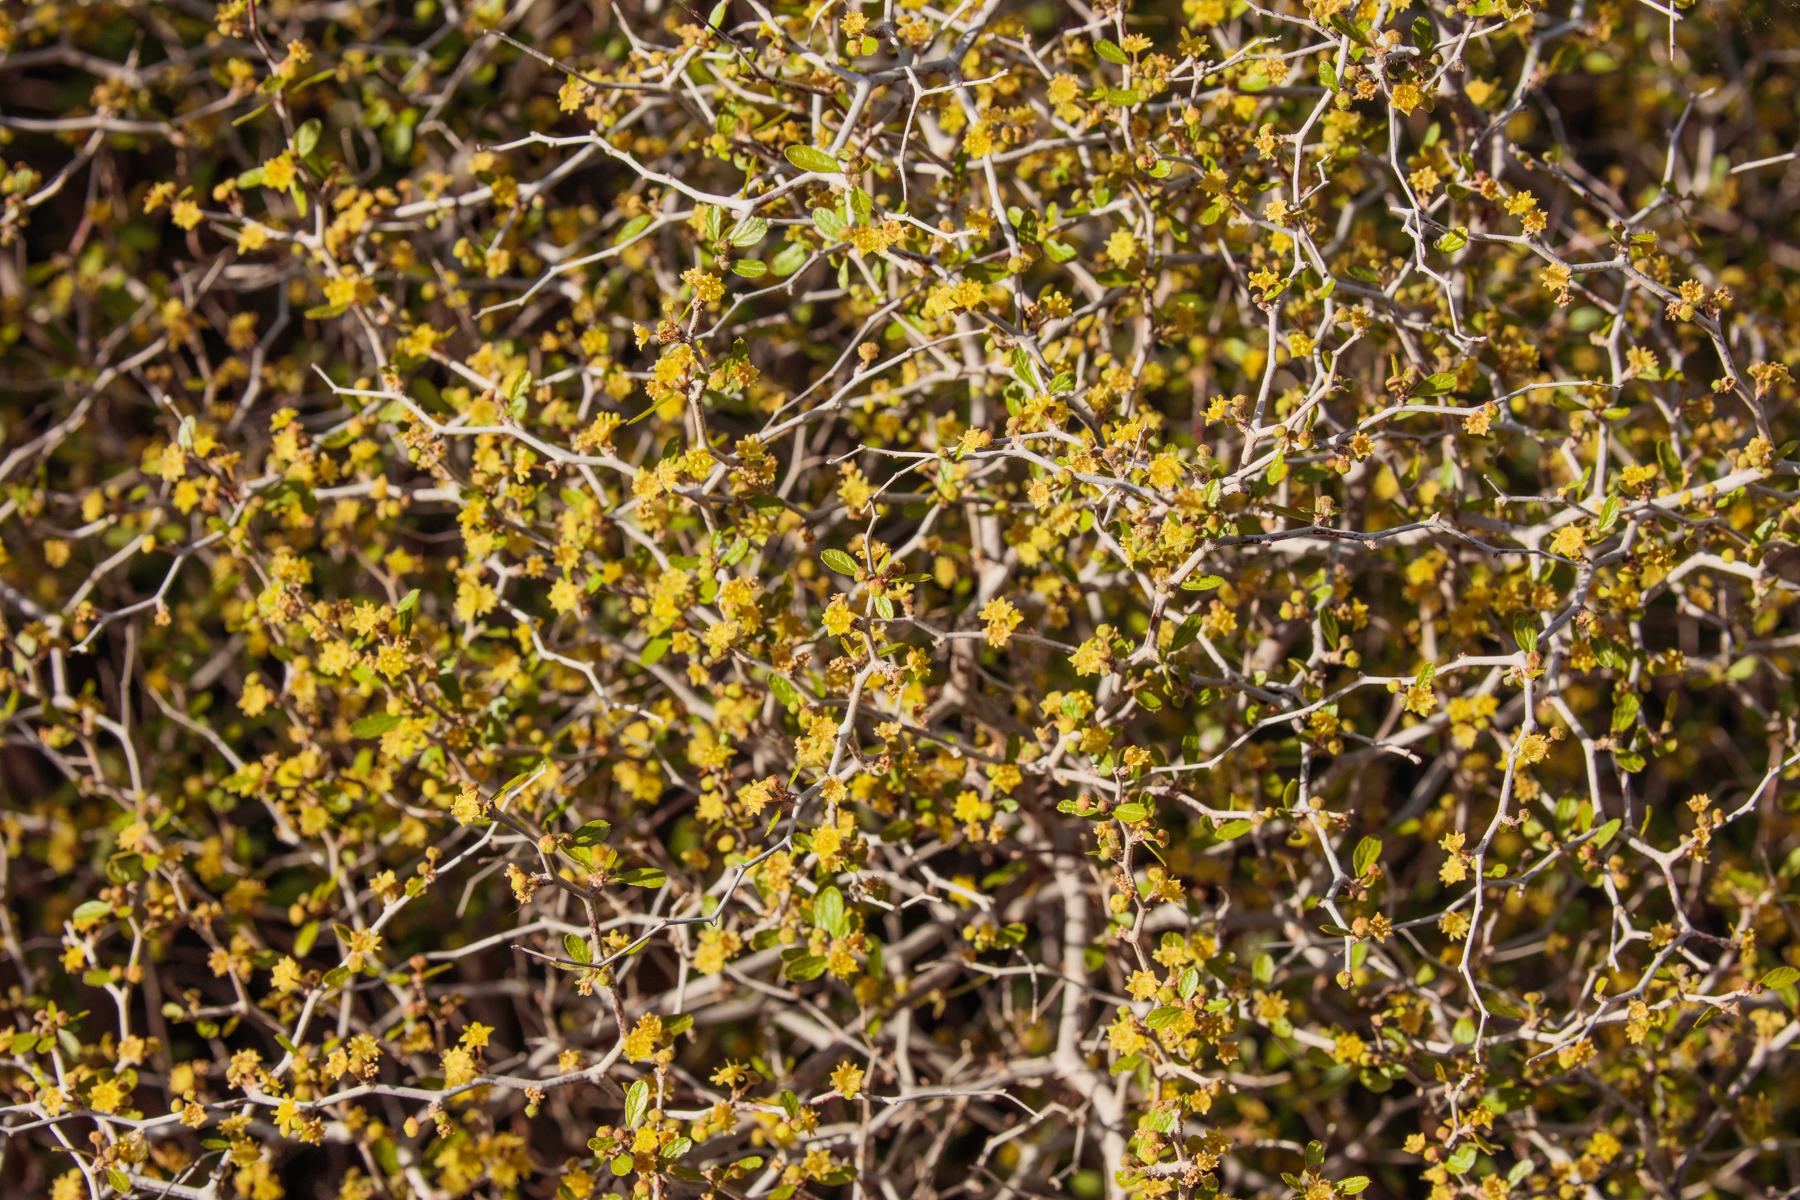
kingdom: Plantae
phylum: Tracheophyta
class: Magnoliopsida
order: Rosales
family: Rhamnaceae
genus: Colubrina
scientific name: Colubrina texensis
